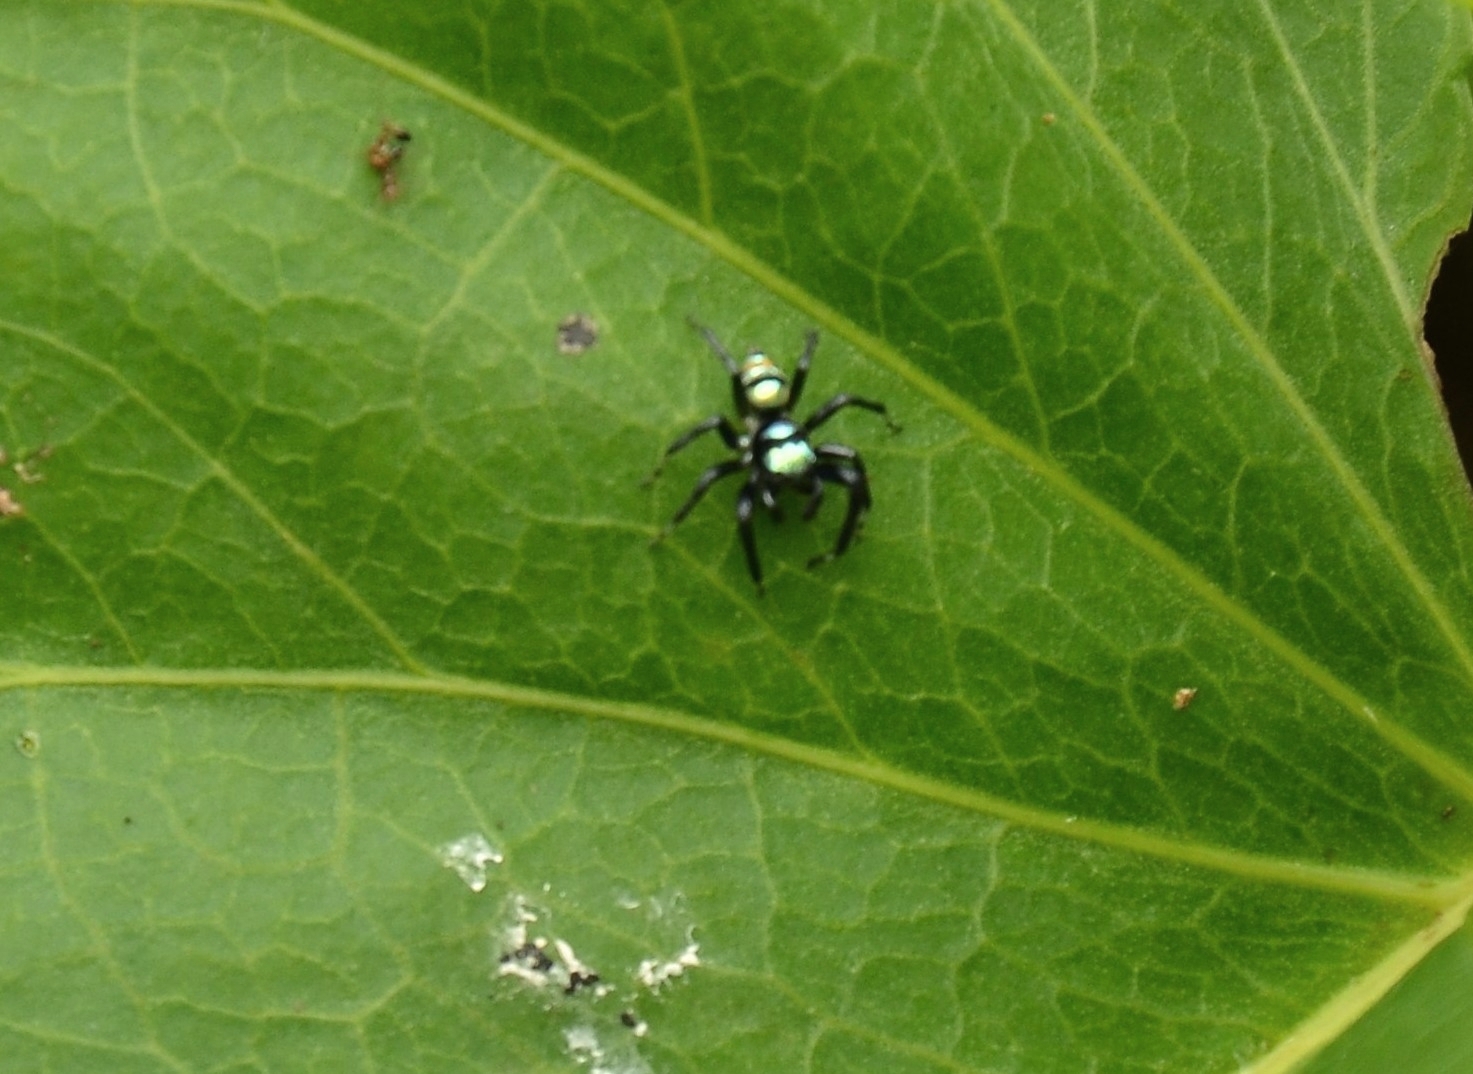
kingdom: Animalia
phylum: Arthropoda
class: Arachnida
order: Araneae
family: Salticidae
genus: Phintella
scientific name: Phintella vittata
